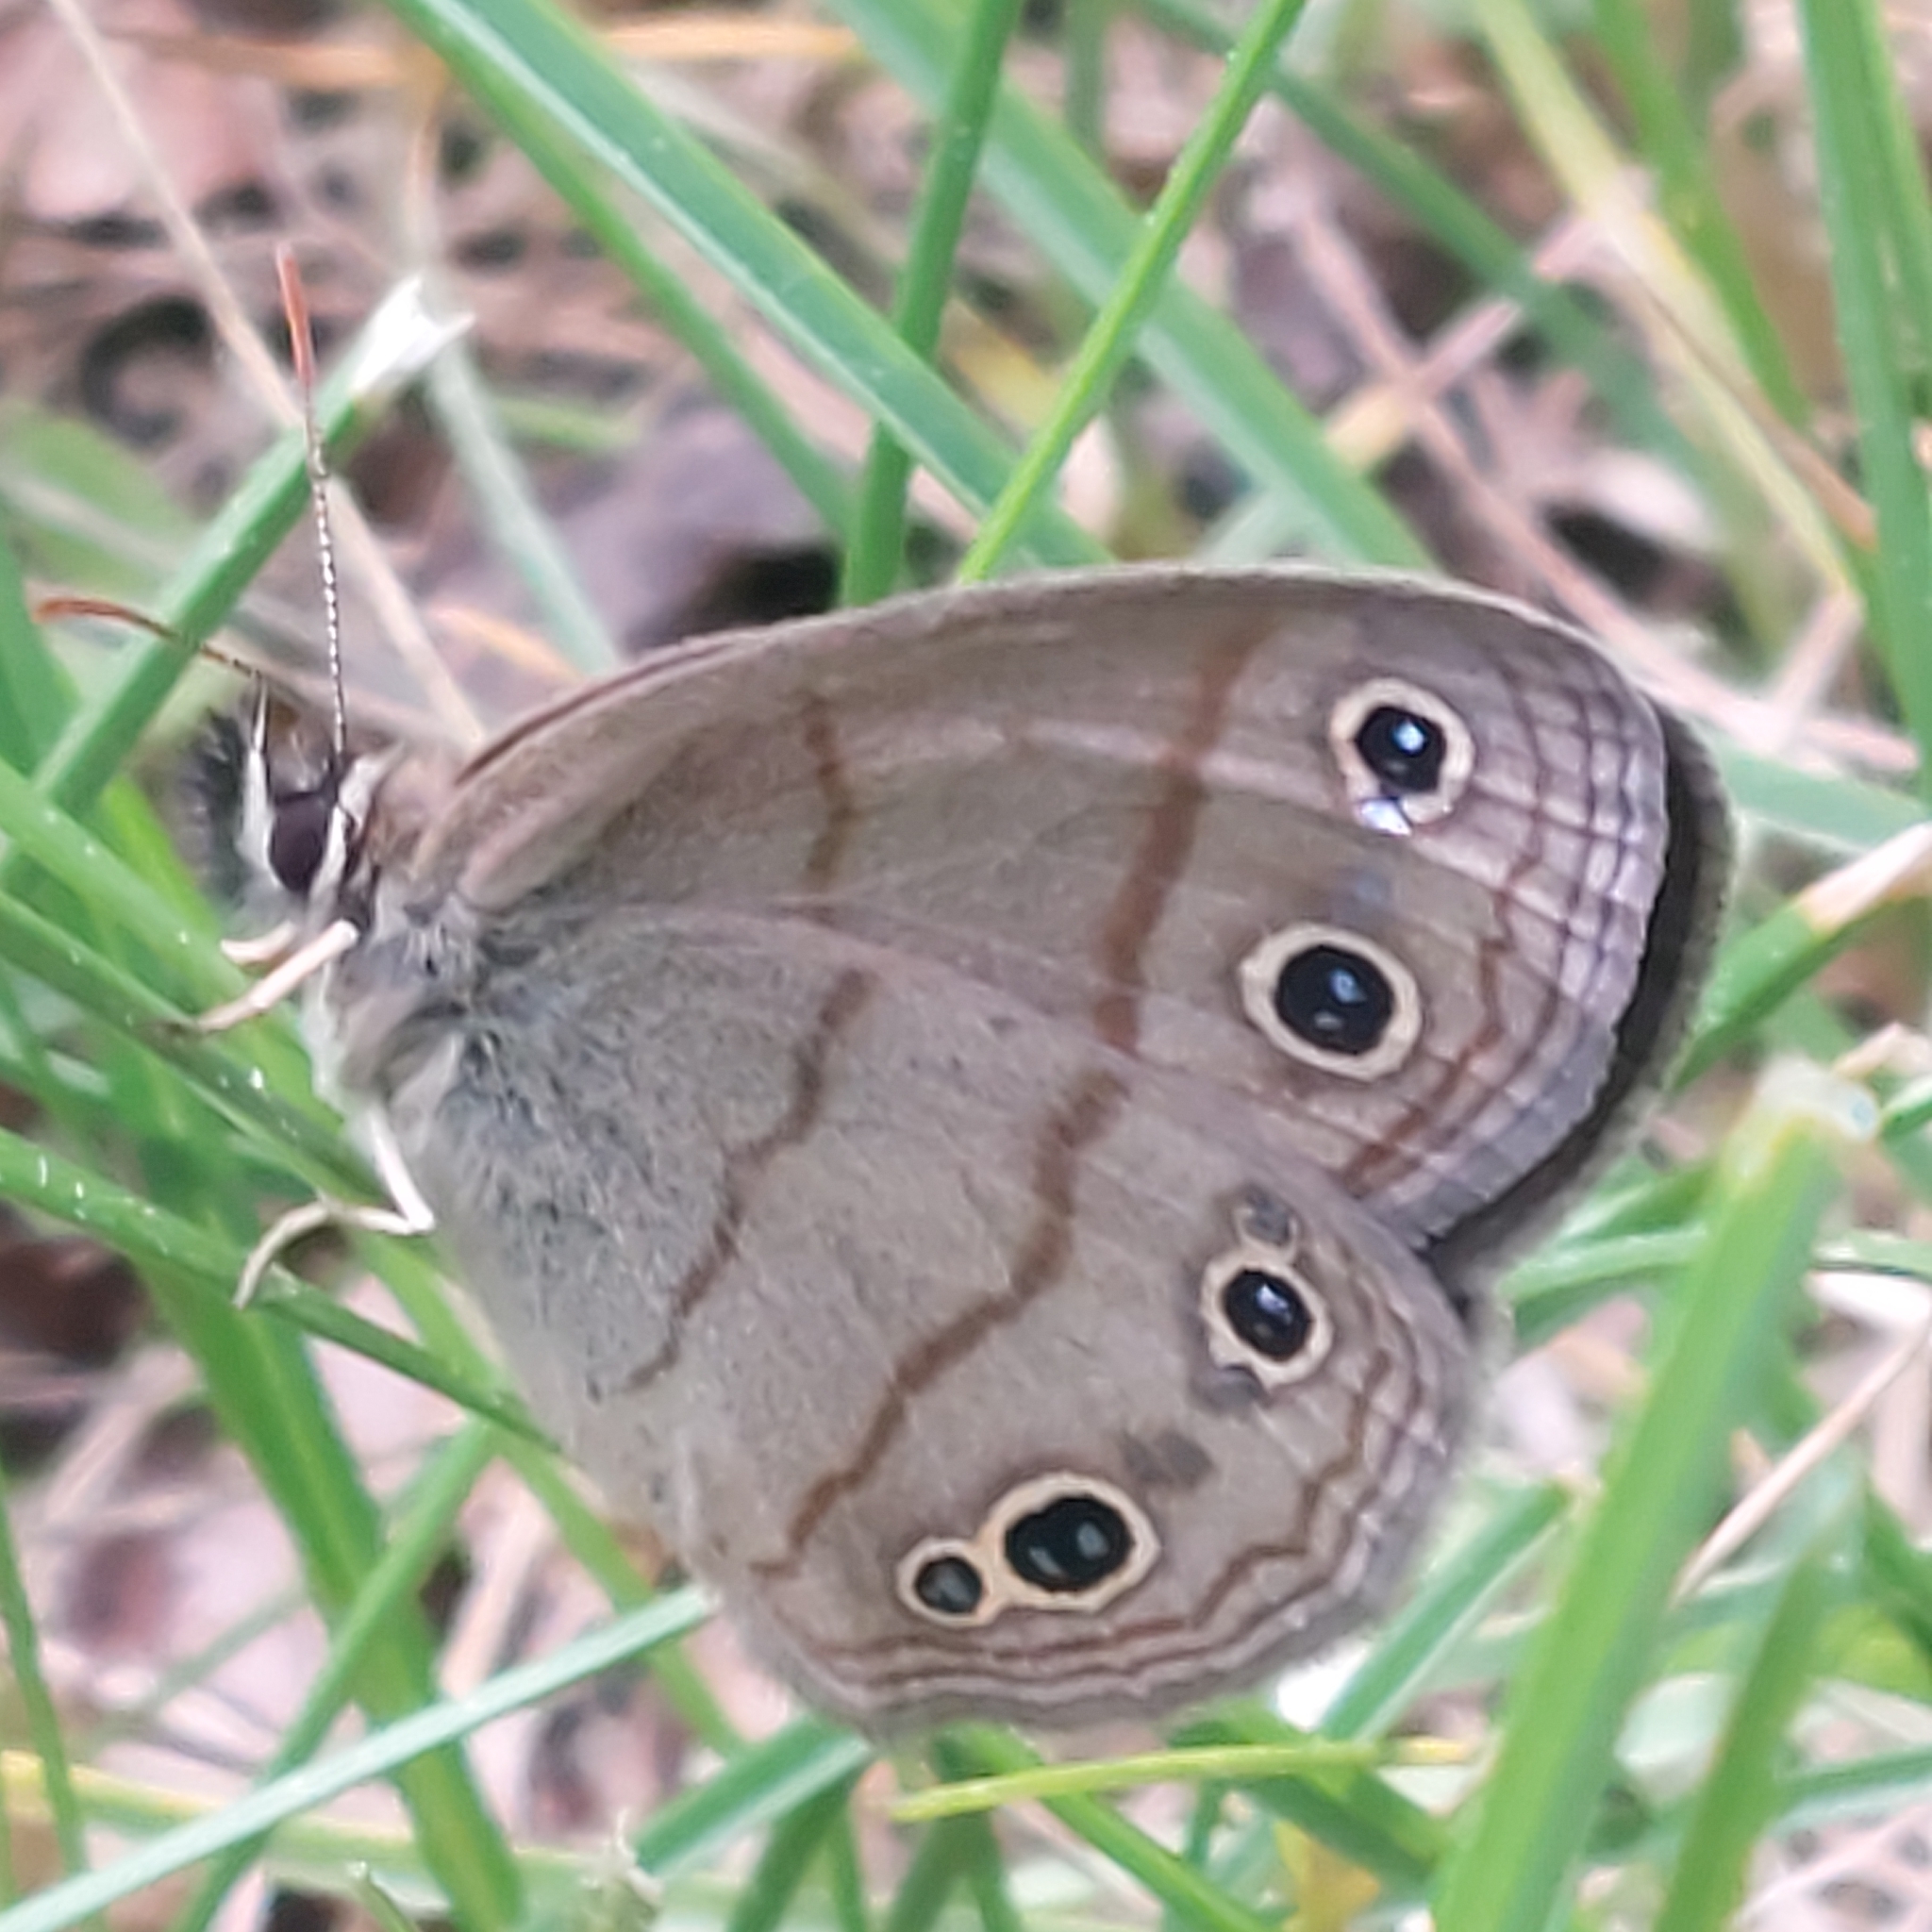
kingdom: Animalia
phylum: Arthropoda
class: Insecta
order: Lepidoptera
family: Nymphalidae
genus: Euptychia
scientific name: Euptychia cymela
